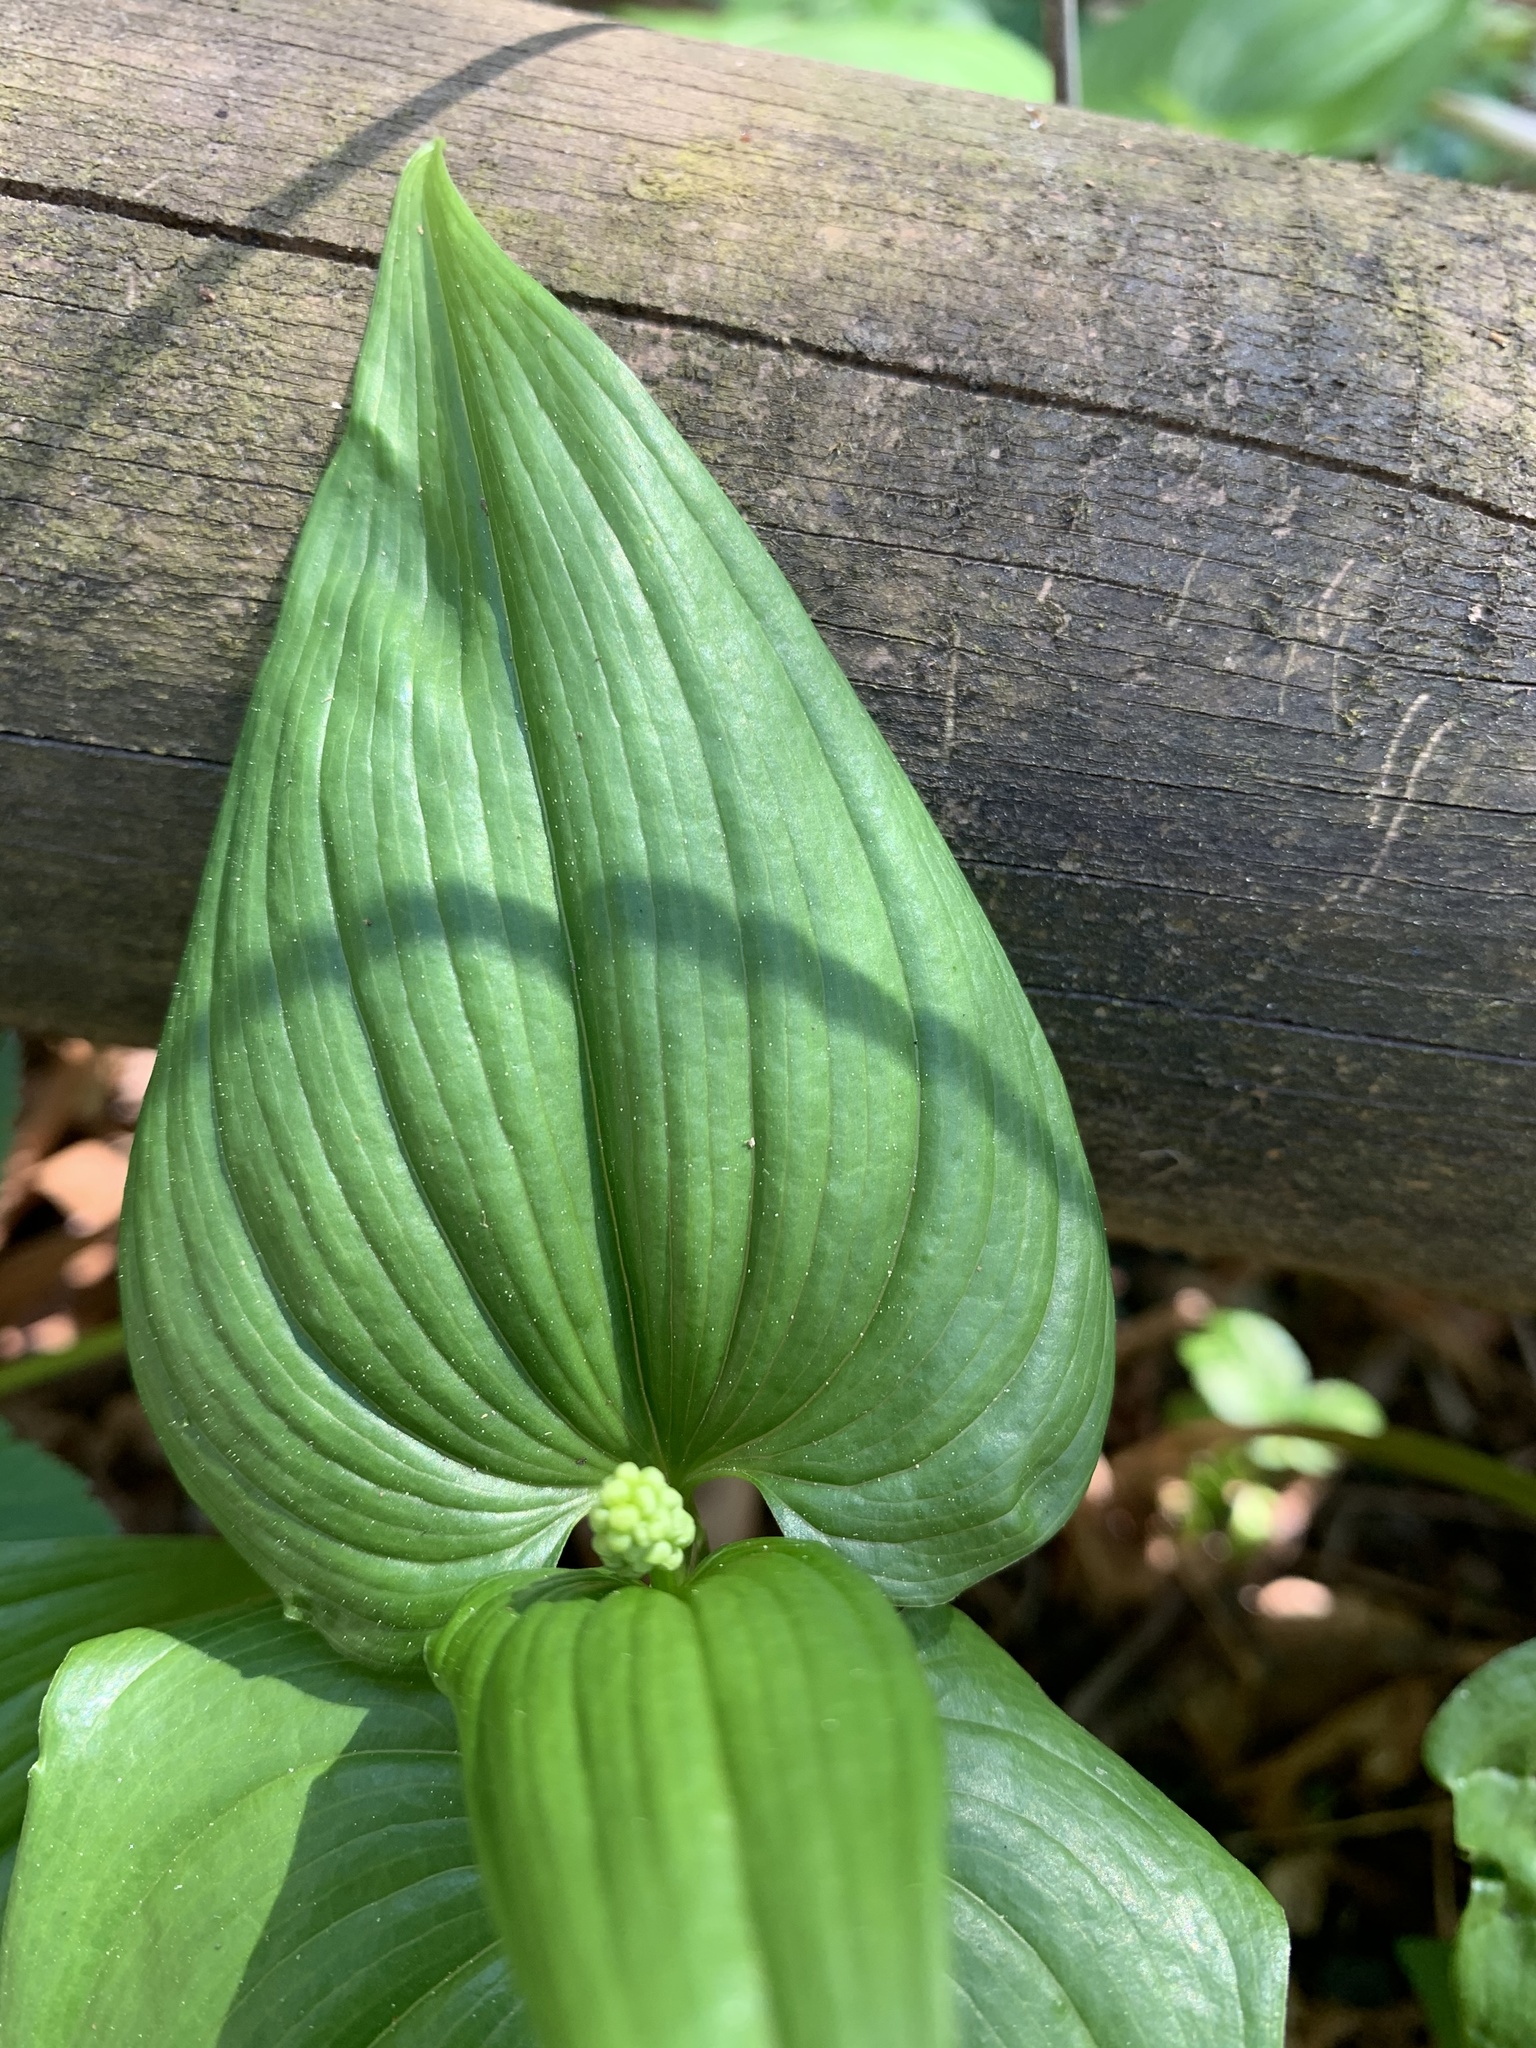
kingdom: Plantae
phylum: Tracheophyta
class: Liliopsida
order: Asparagales
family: Asparagaceae
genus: Maianthemum
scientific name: Maianthemum dilatatum
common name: False lily-of-the-valley
